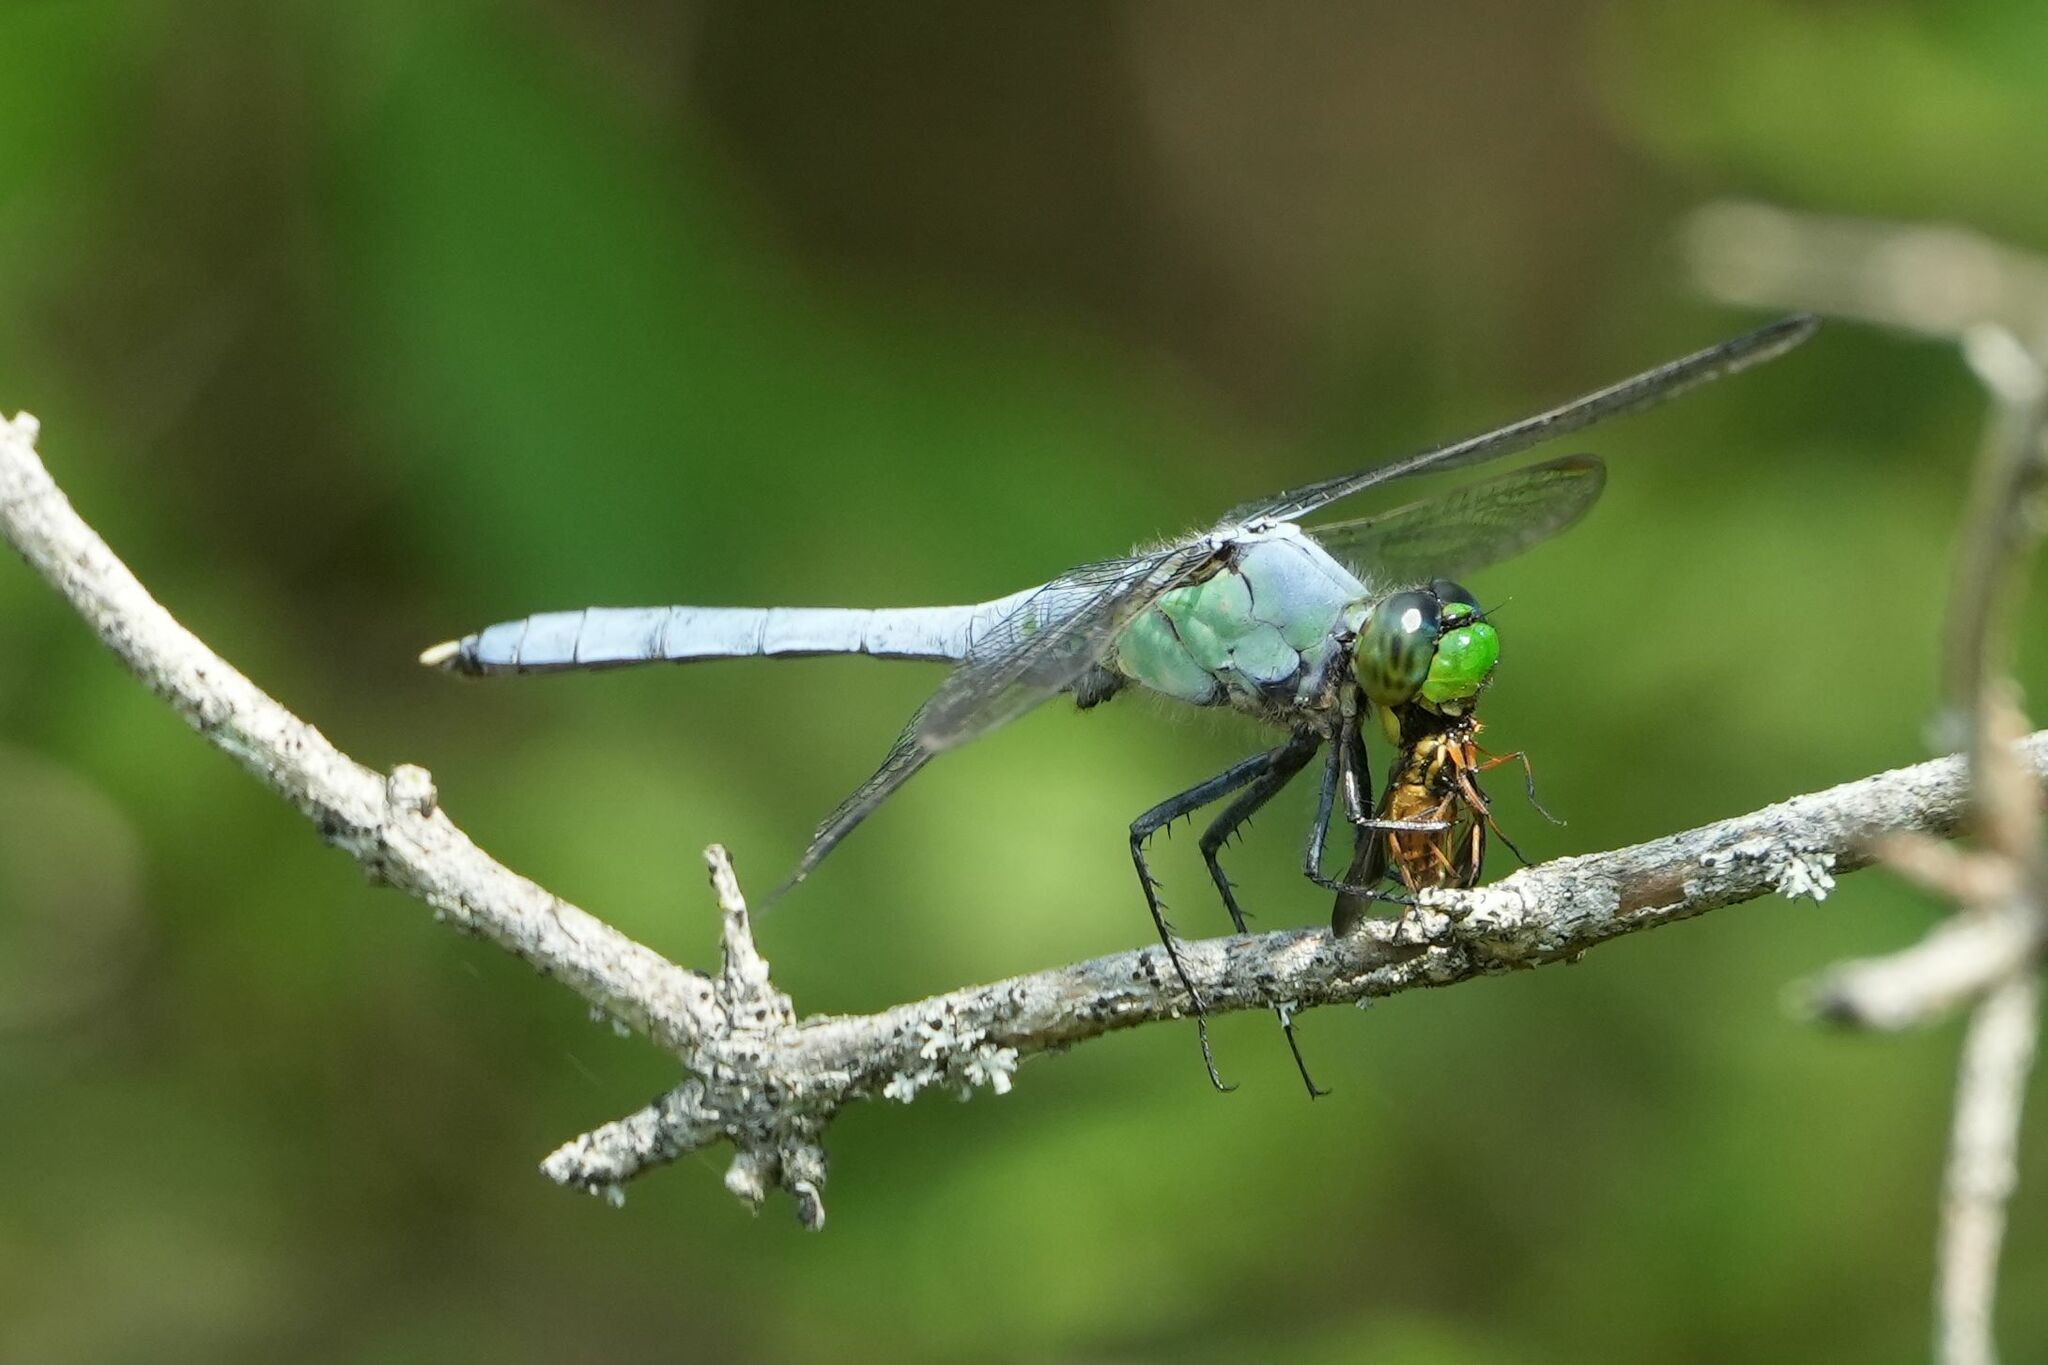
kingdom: Animalia
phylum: Arthropoda
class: Insecta
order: Odonata
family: Libellulidae
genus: Erythemis
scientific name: Erythemis simplicicollis
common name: Eastern pondhawk
